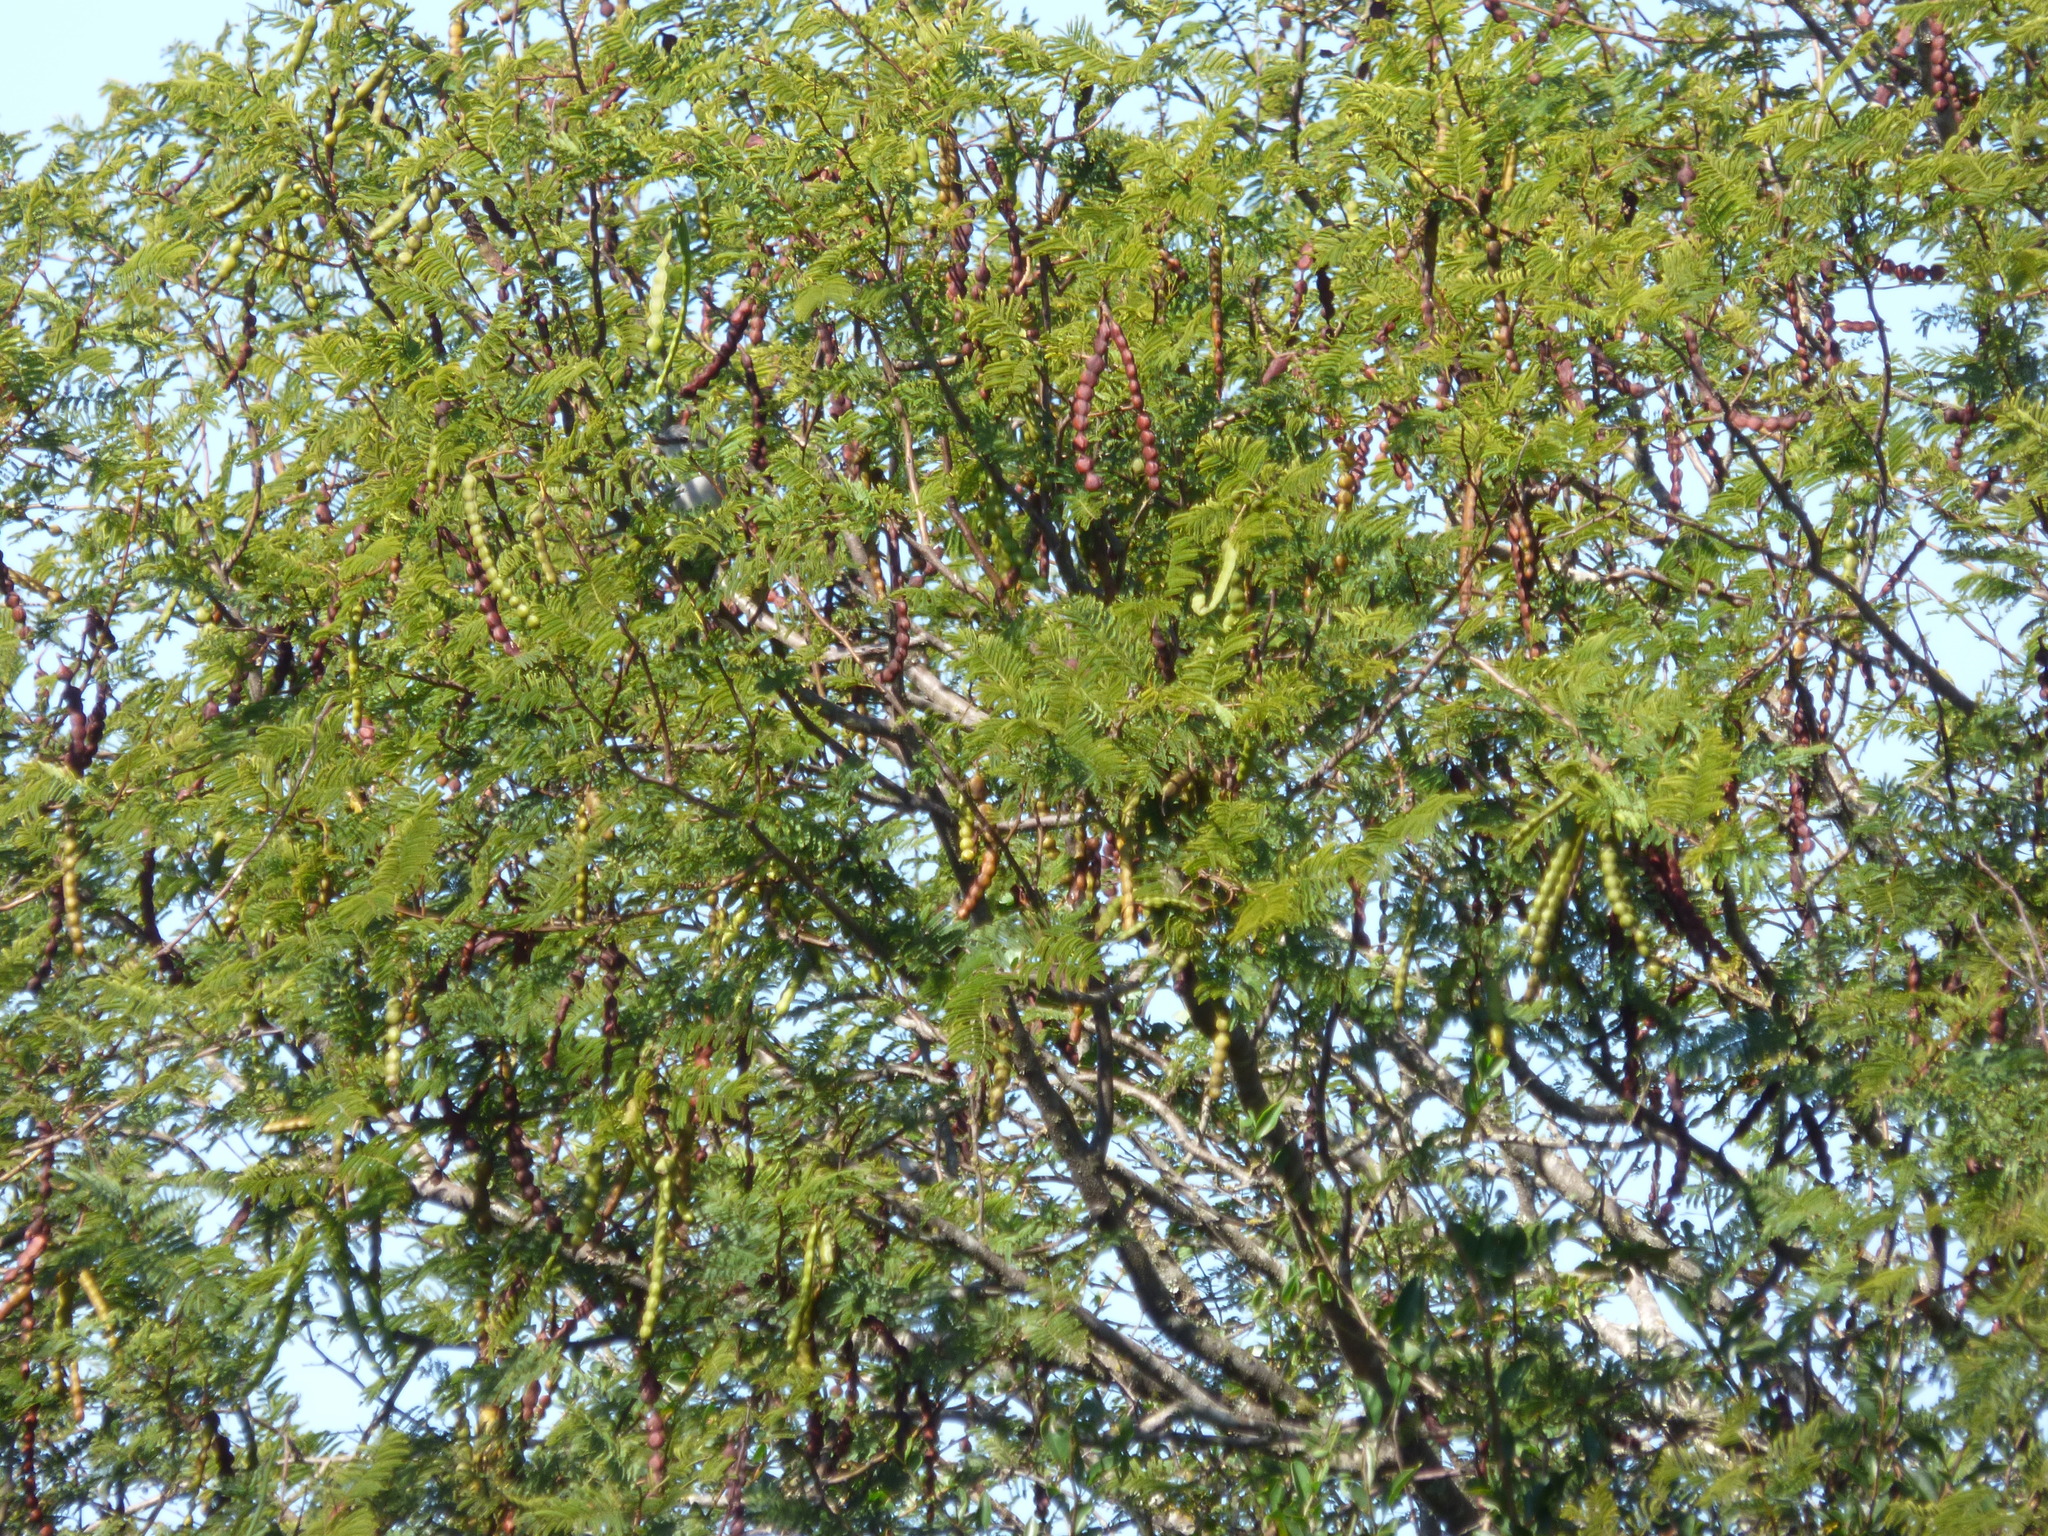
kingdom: Plantae
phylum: Tracheophyta
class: Magnoliopsida
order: Fabales
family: Fabaceae
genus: Vachellia
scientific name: Vachellia aroma
